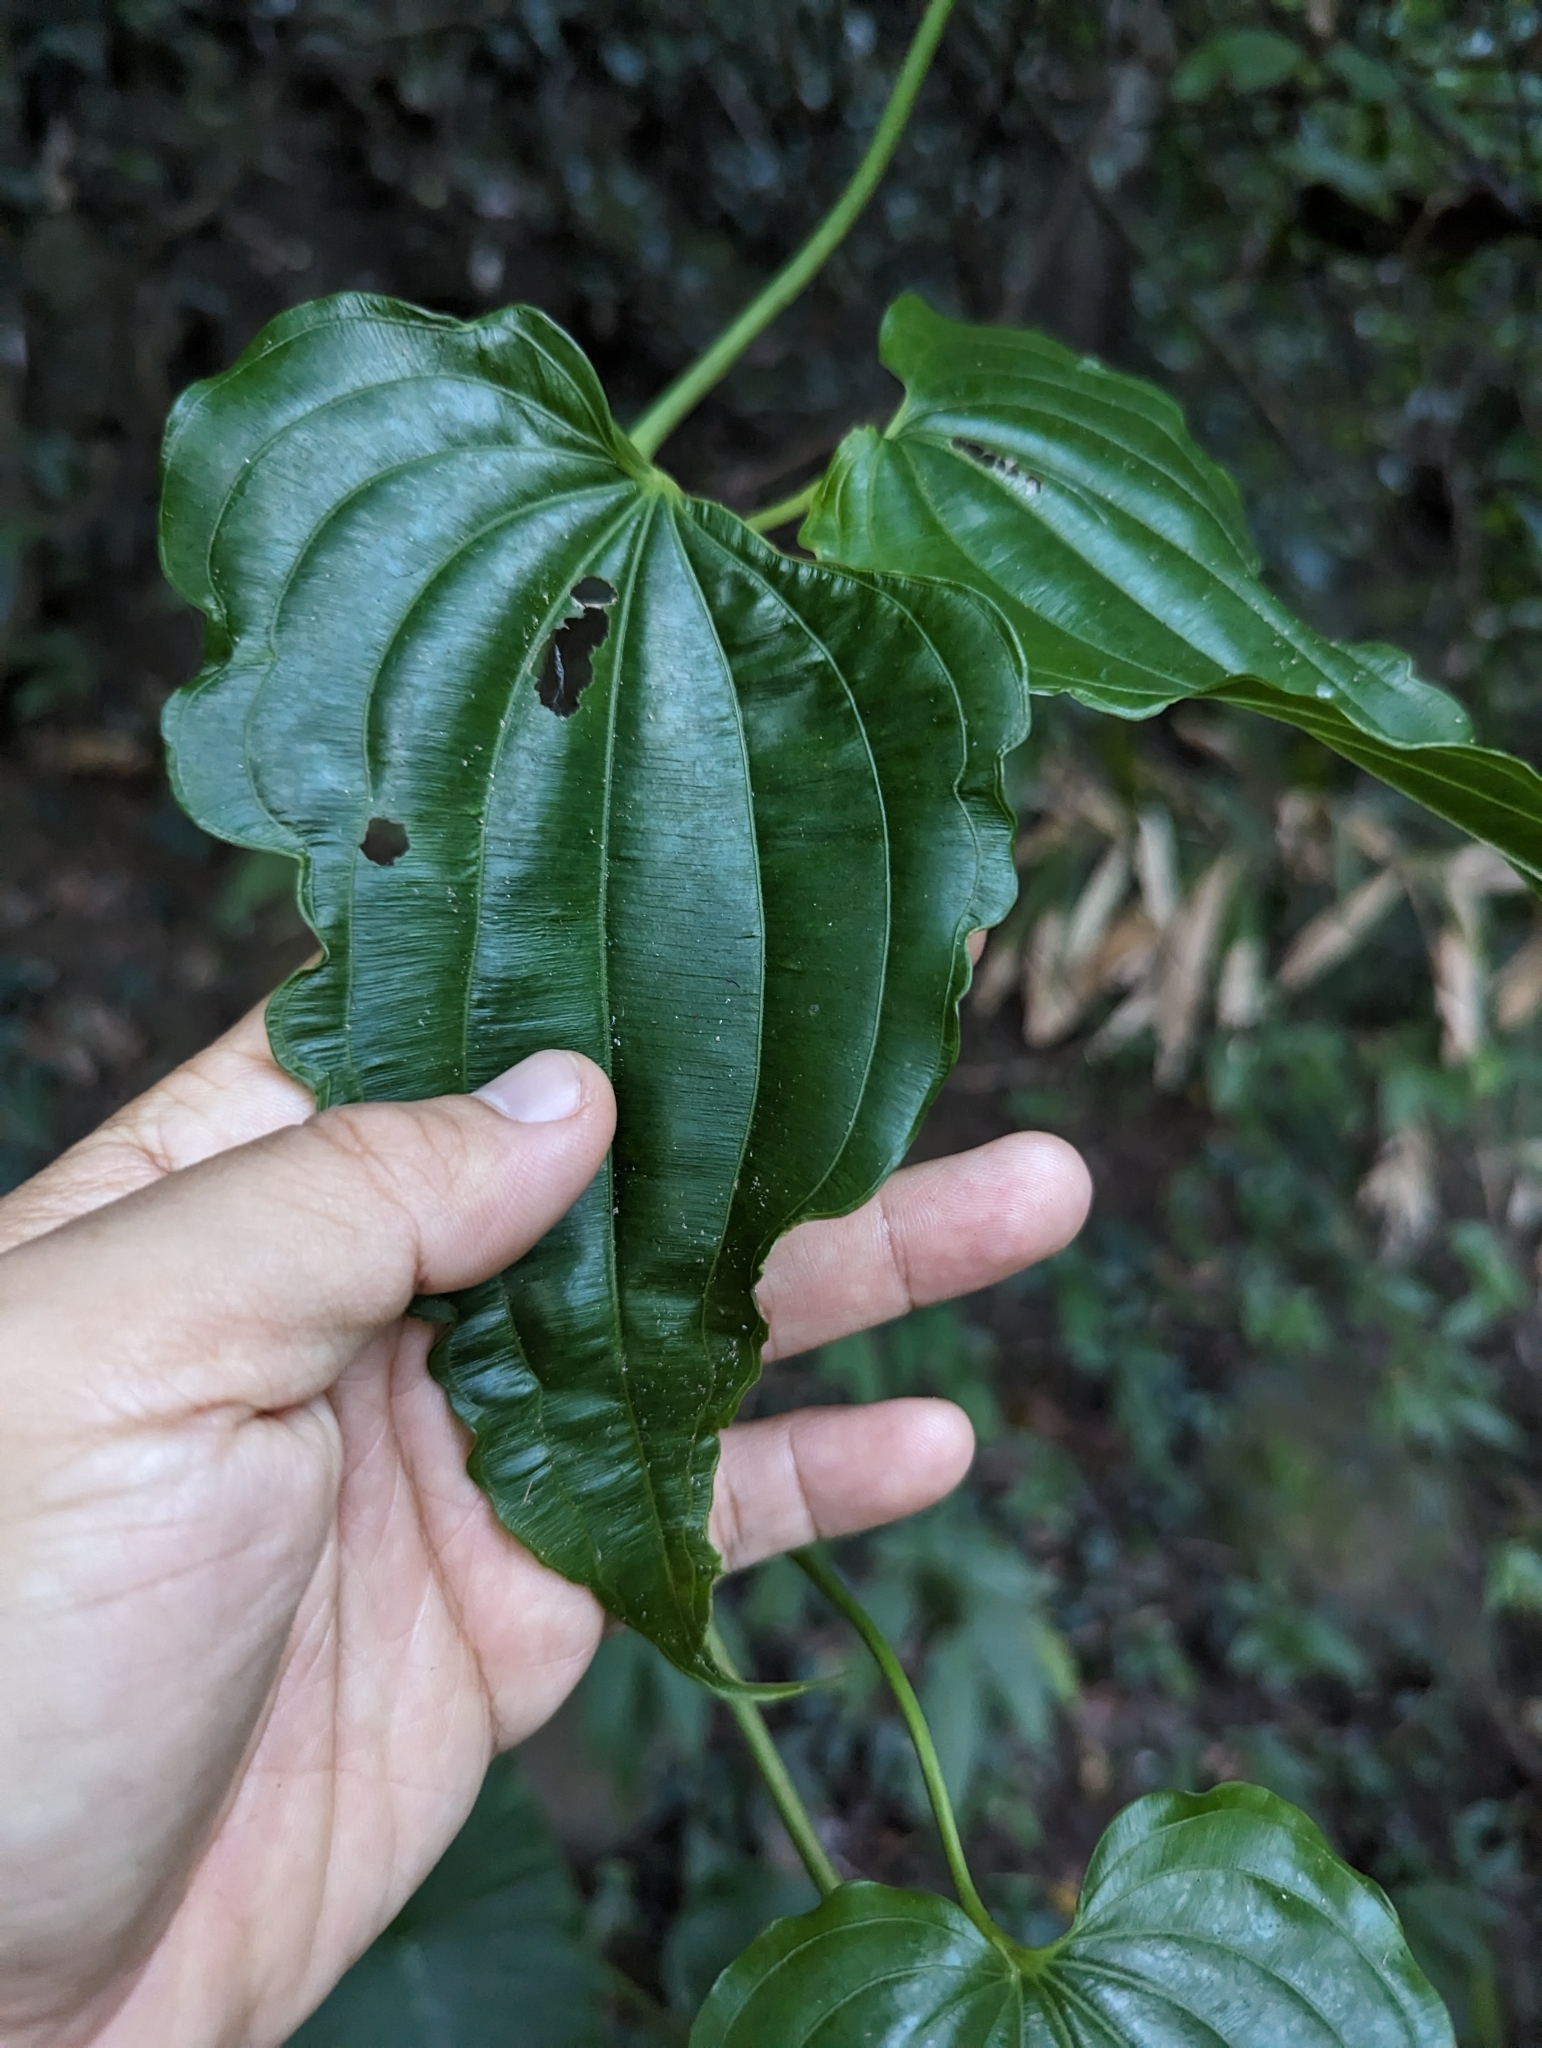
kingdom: Plantae
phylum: Tracheophyta
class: Liliopsida
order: Pandanales
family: Stemonaceae
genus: Stemona
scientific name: Stemona tuberosa
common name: Stemona
